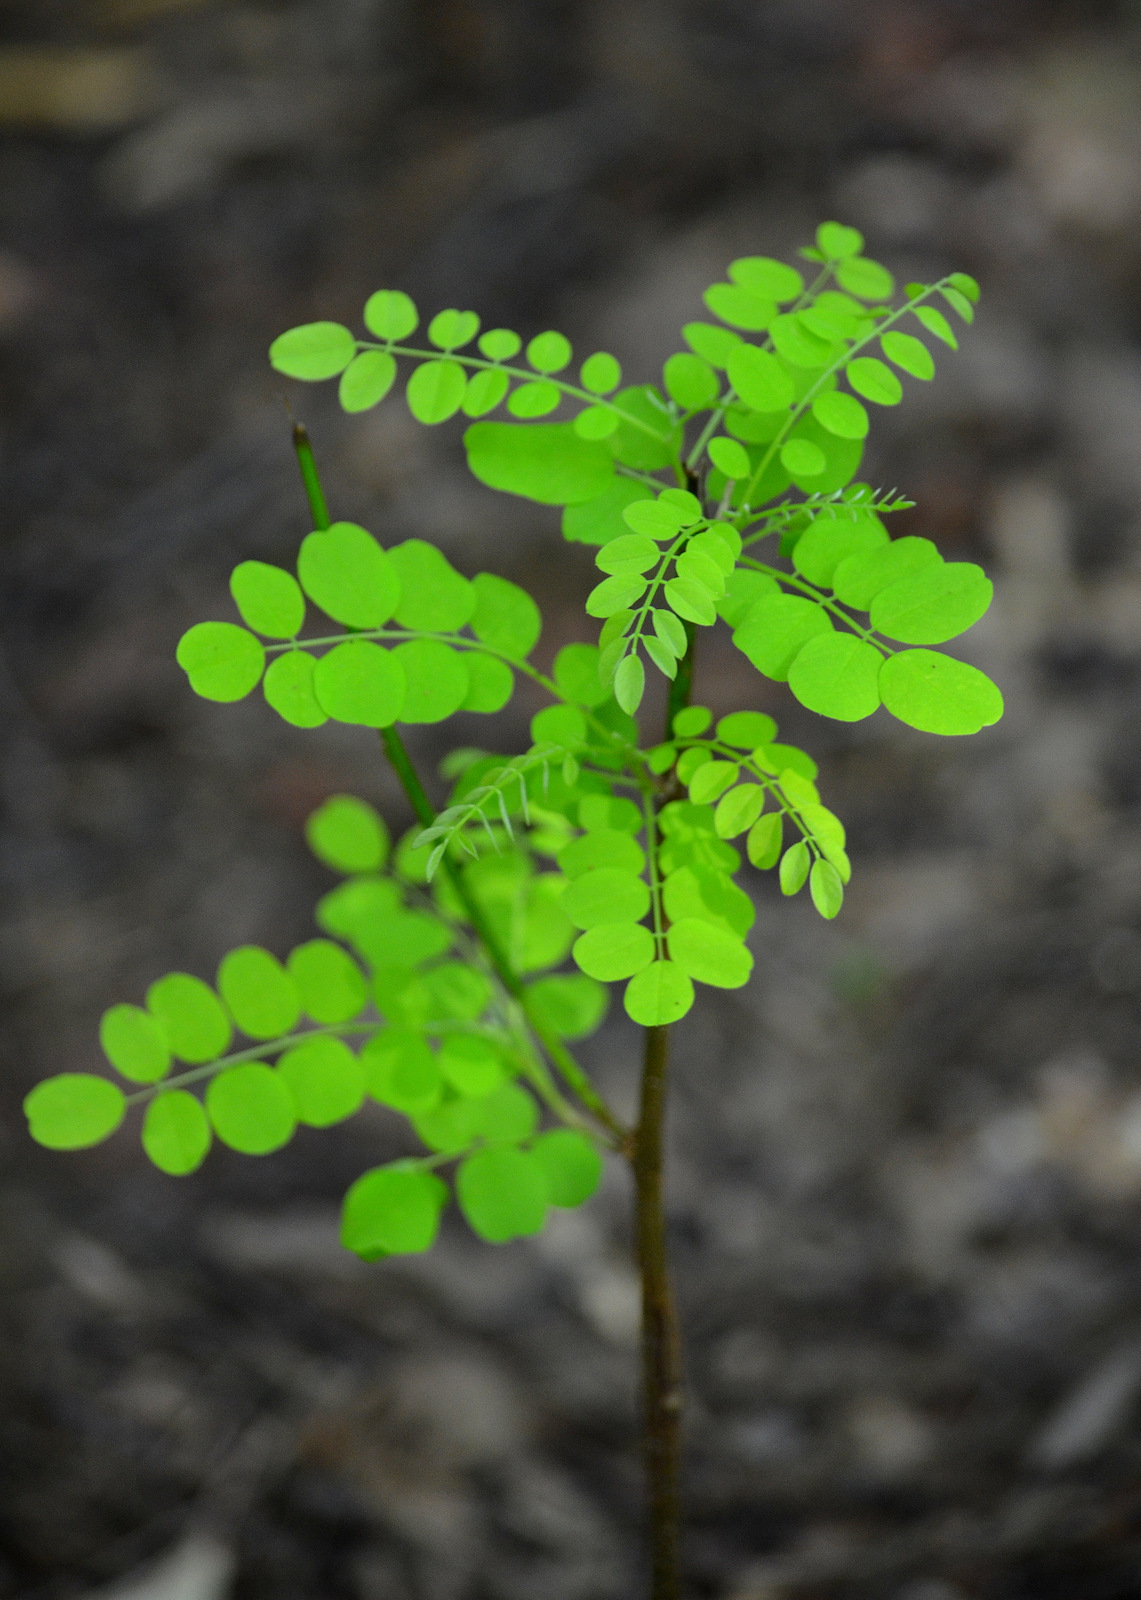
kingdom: Plantae
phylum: Tracheophyta
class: Magnoliopsida
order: Fabales
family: Fabaceae
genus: Robinia
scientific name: Robinia pseudoacacia
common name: Black locust
